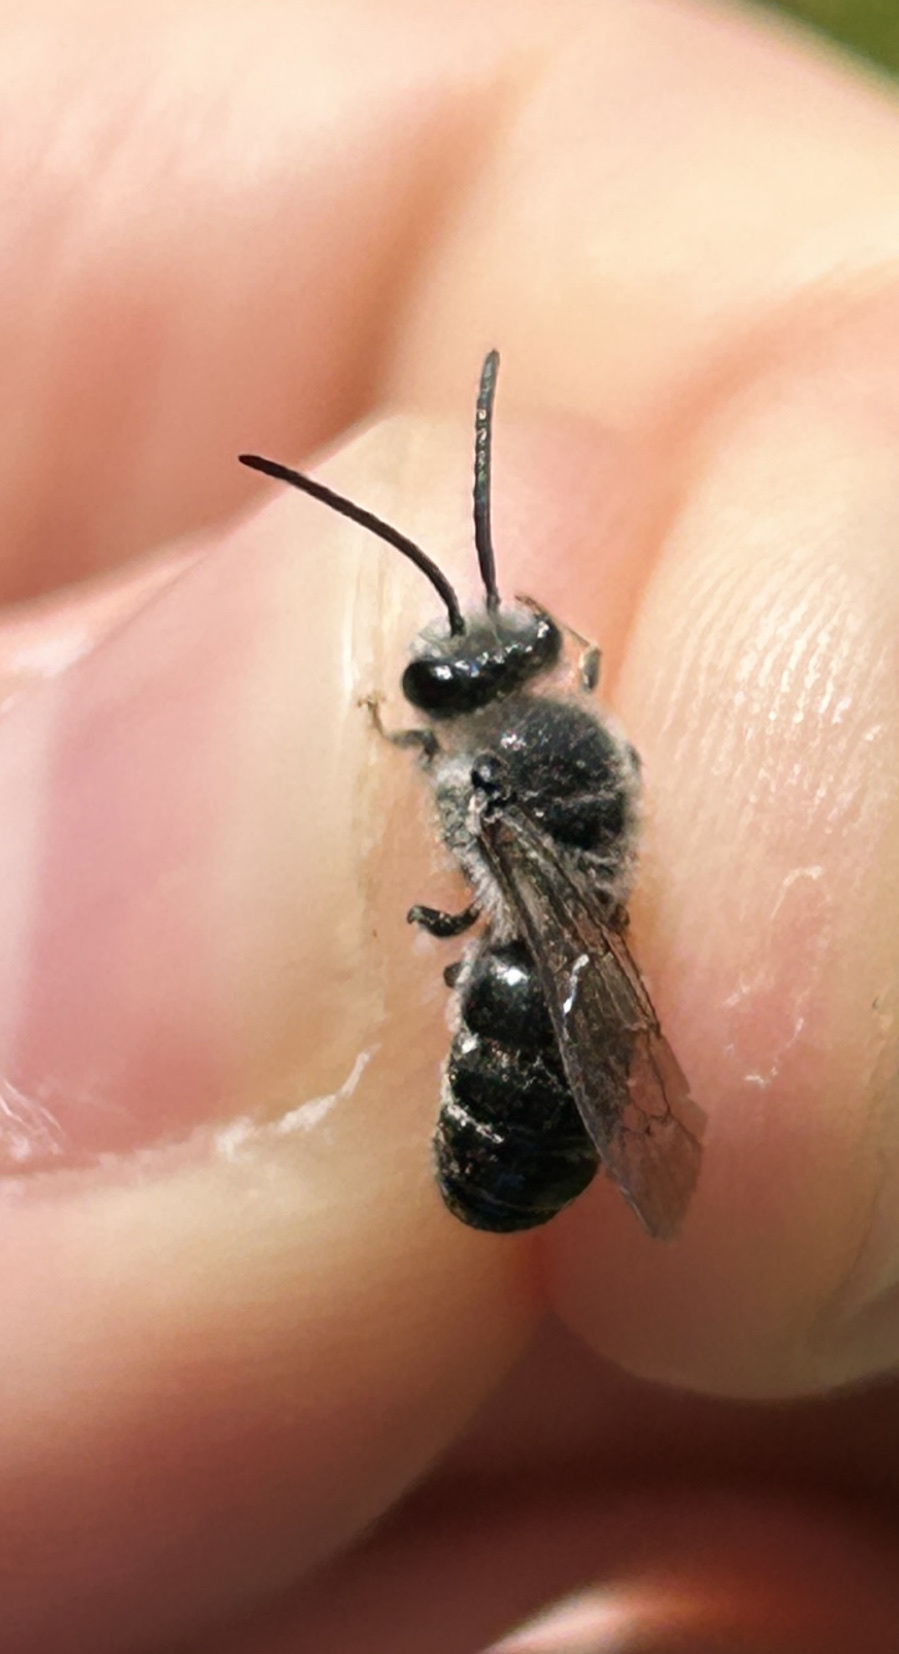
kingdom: Animalia
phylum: Arthropoda
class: Insecta
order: Hymenoptera
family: Colletidae
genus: Colletes
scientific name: Colletes nudus
